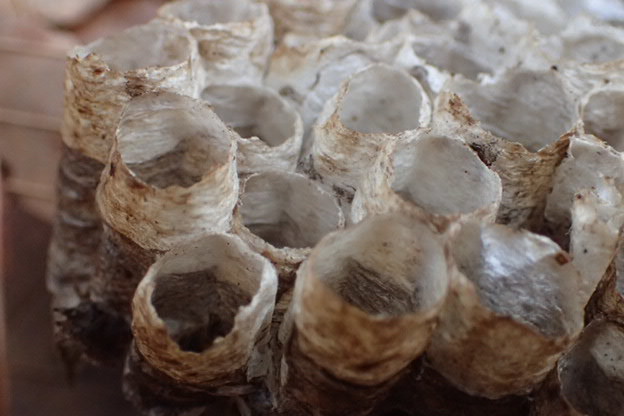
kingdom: Animalia
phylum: Arthropoda
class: Insecta
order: Hymenoptera
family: Eumenidae
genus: Polistes
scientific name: Polistes
